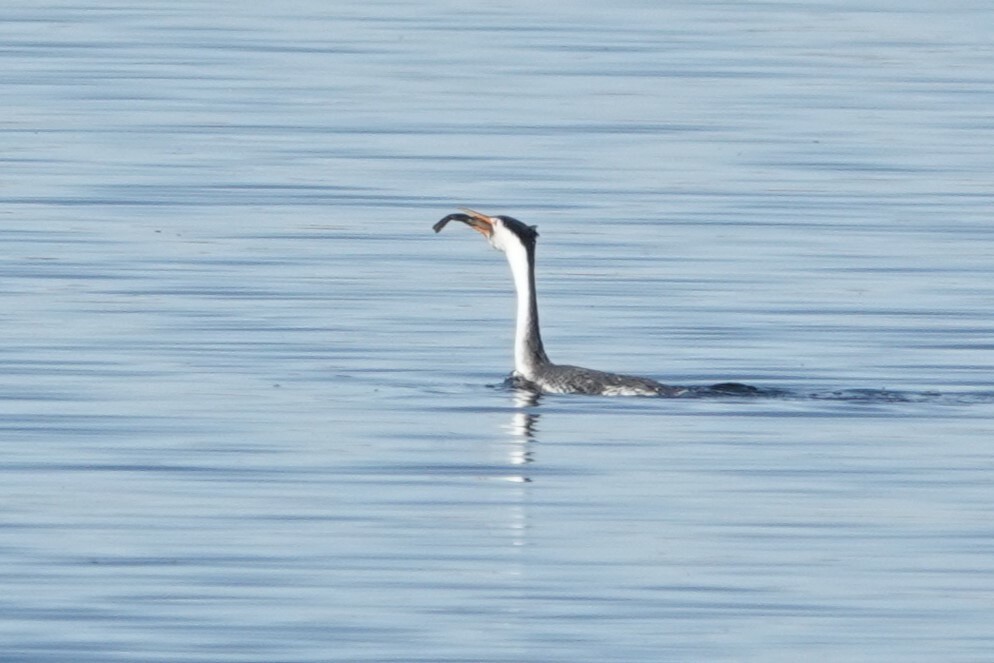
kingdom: Animalia
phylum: Chordata
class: Amphibia
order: Anura
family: Pipidae
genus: Xenopus
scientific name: Xenopus laevis
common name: African clawed frog
